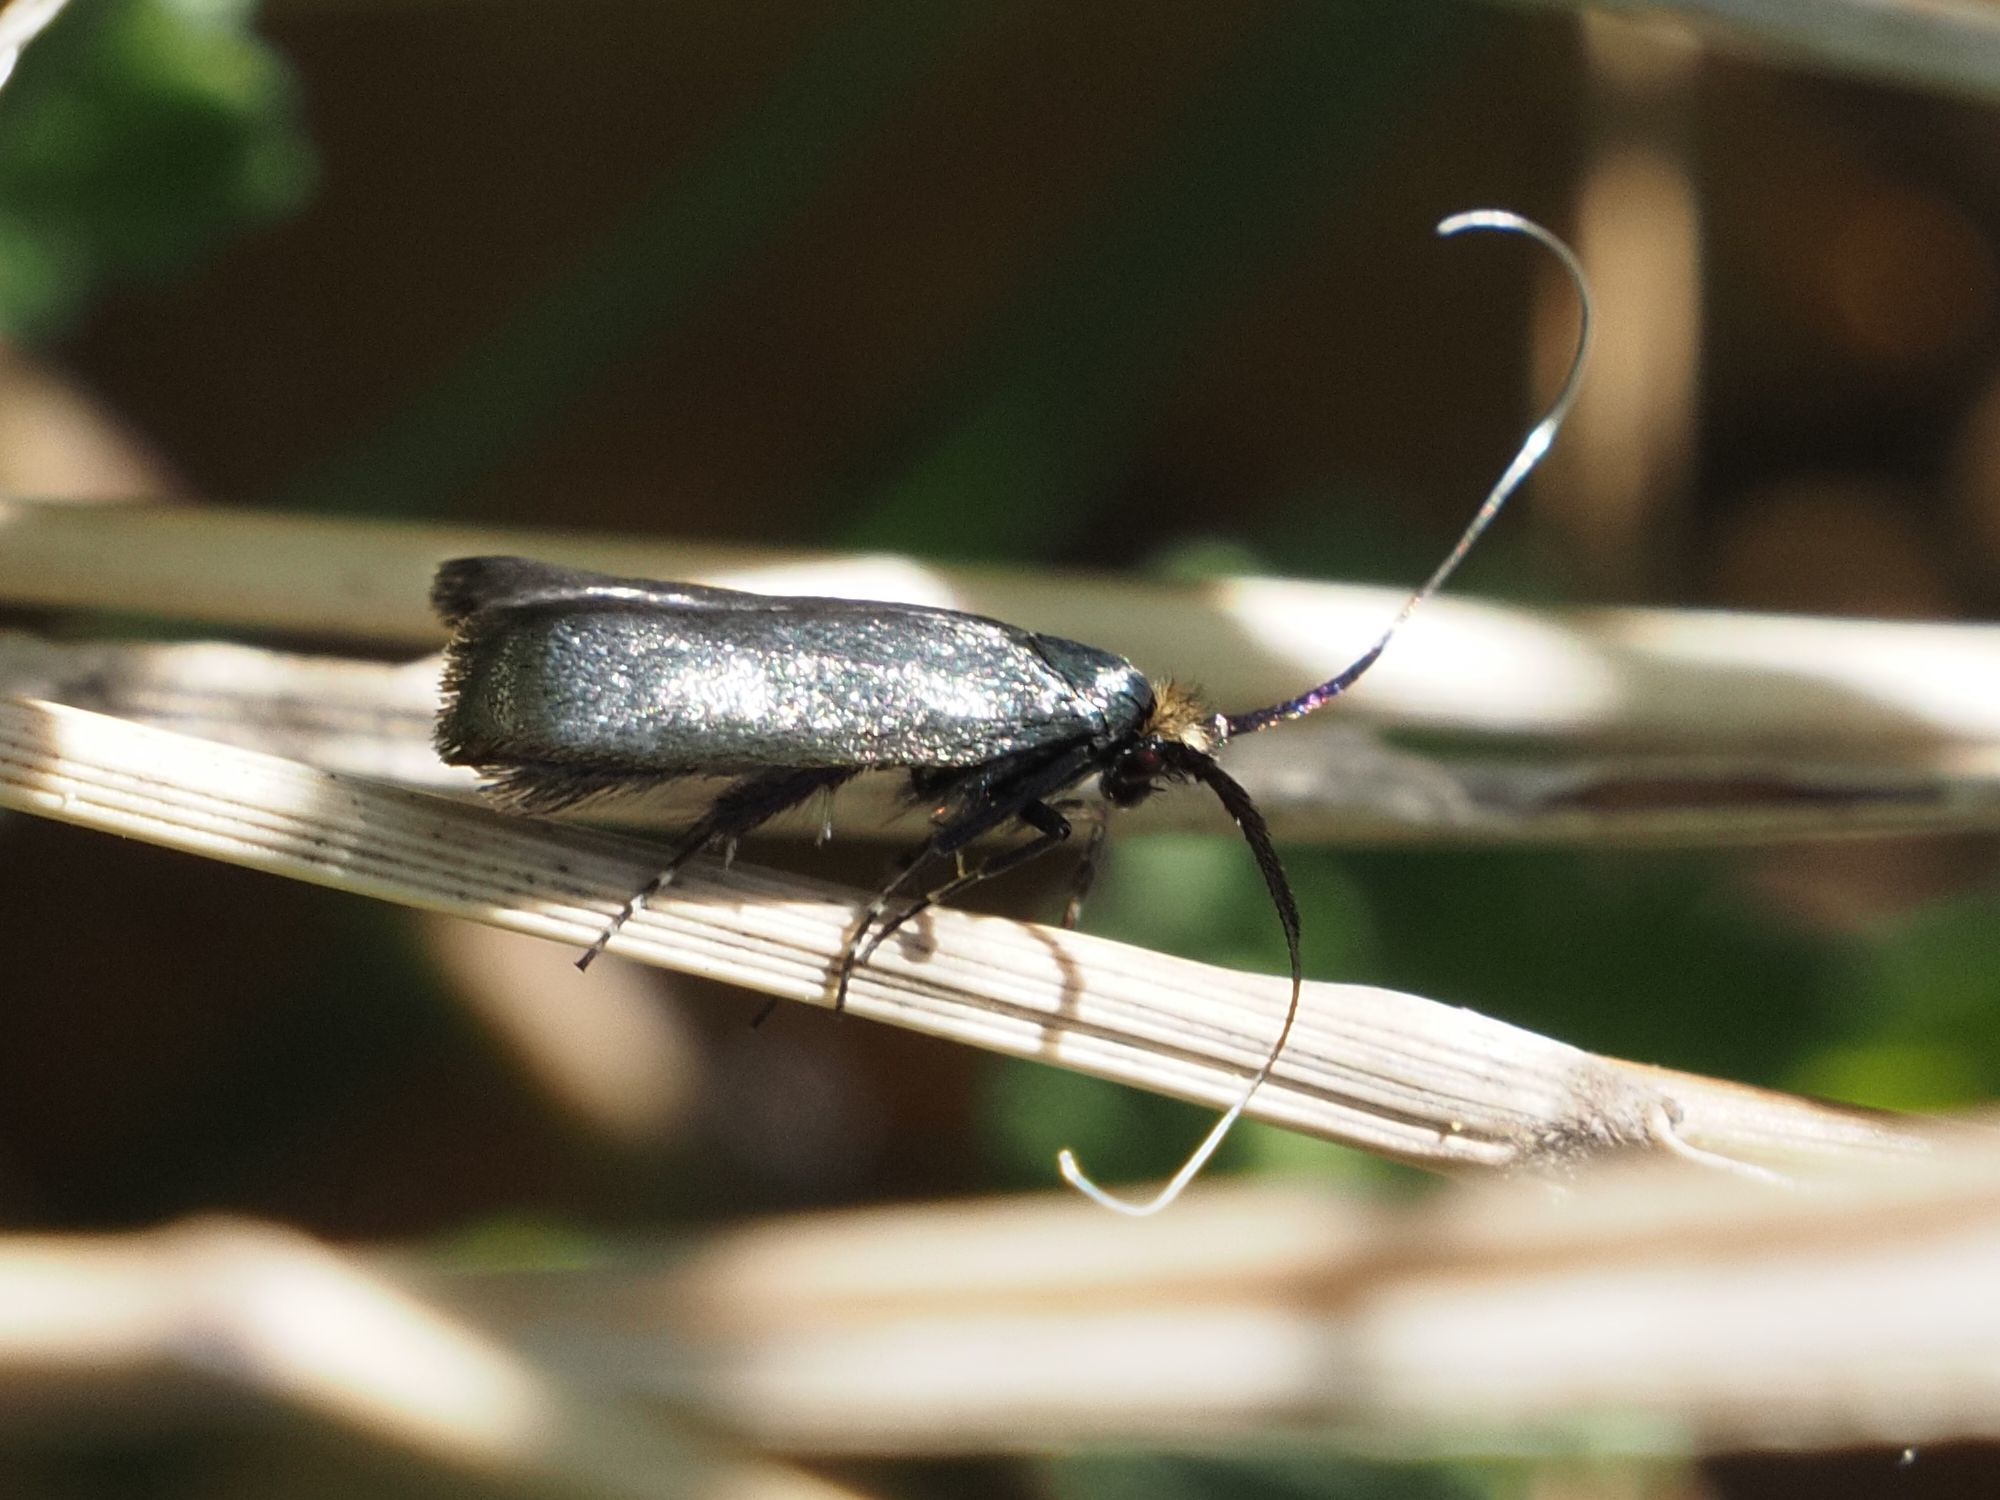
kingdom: Animalia
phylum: Arthropoda
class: Insecta
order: Lepidoptera
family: Adelidae
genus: Adela
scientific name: Adela viridella
